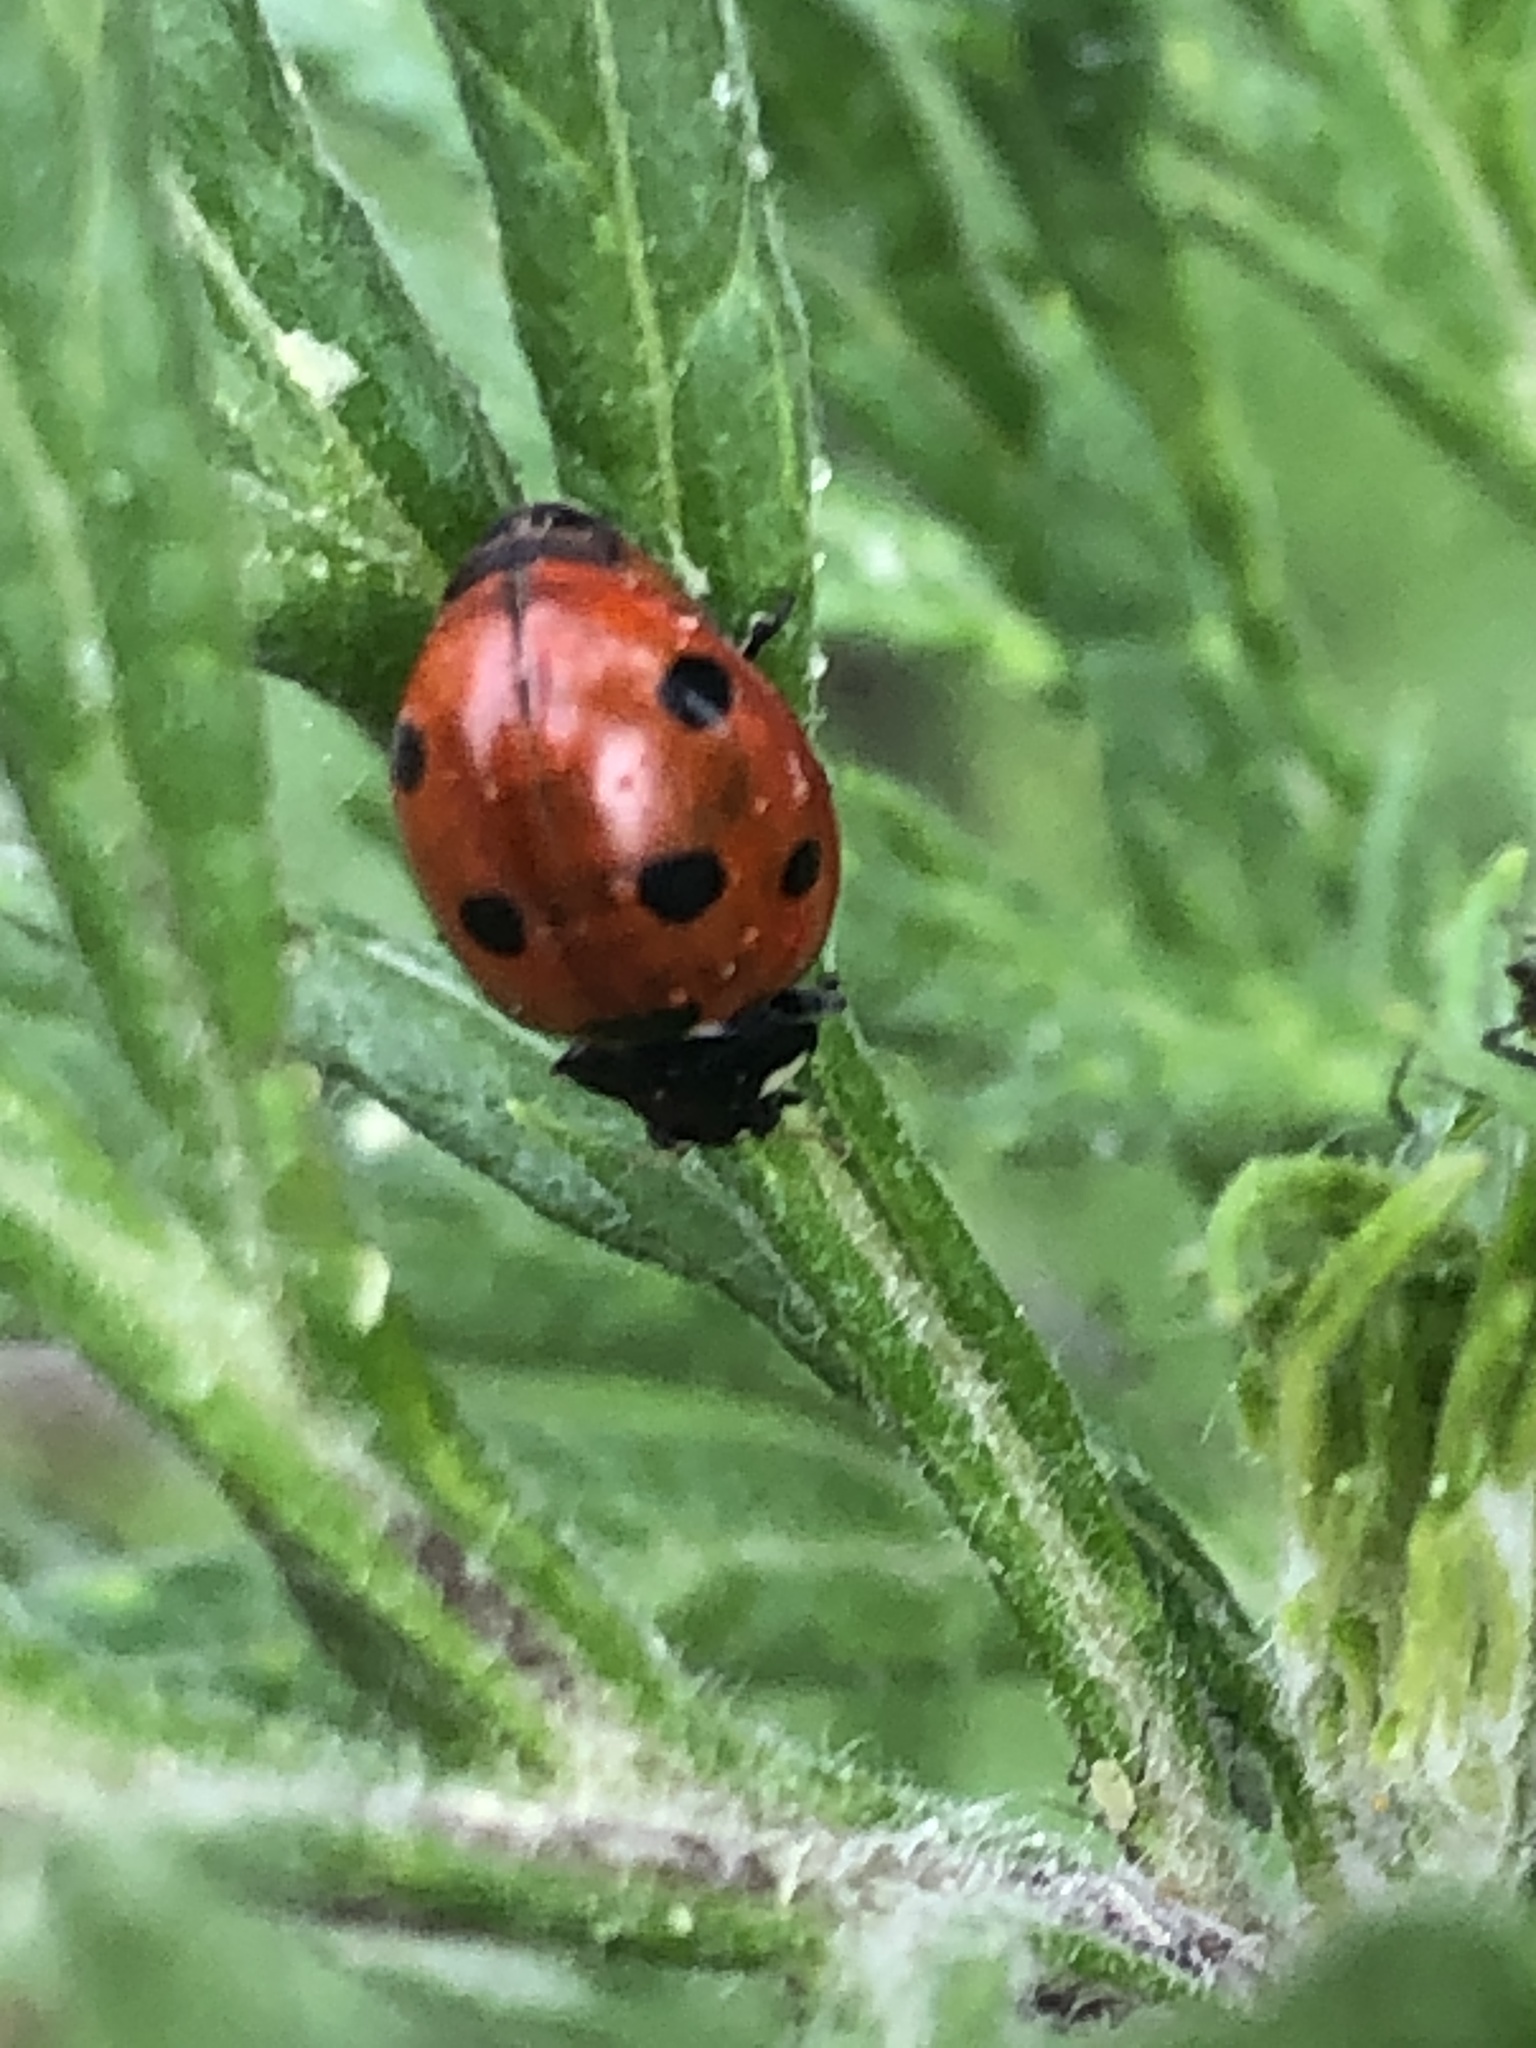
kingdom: Animalia
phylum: Arthropoda
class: Insecta
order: Coleoptera
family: Coccinellidae
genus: Coccinella
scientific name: Coccinella septempunctata
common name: Sevenspotted lady beetle
